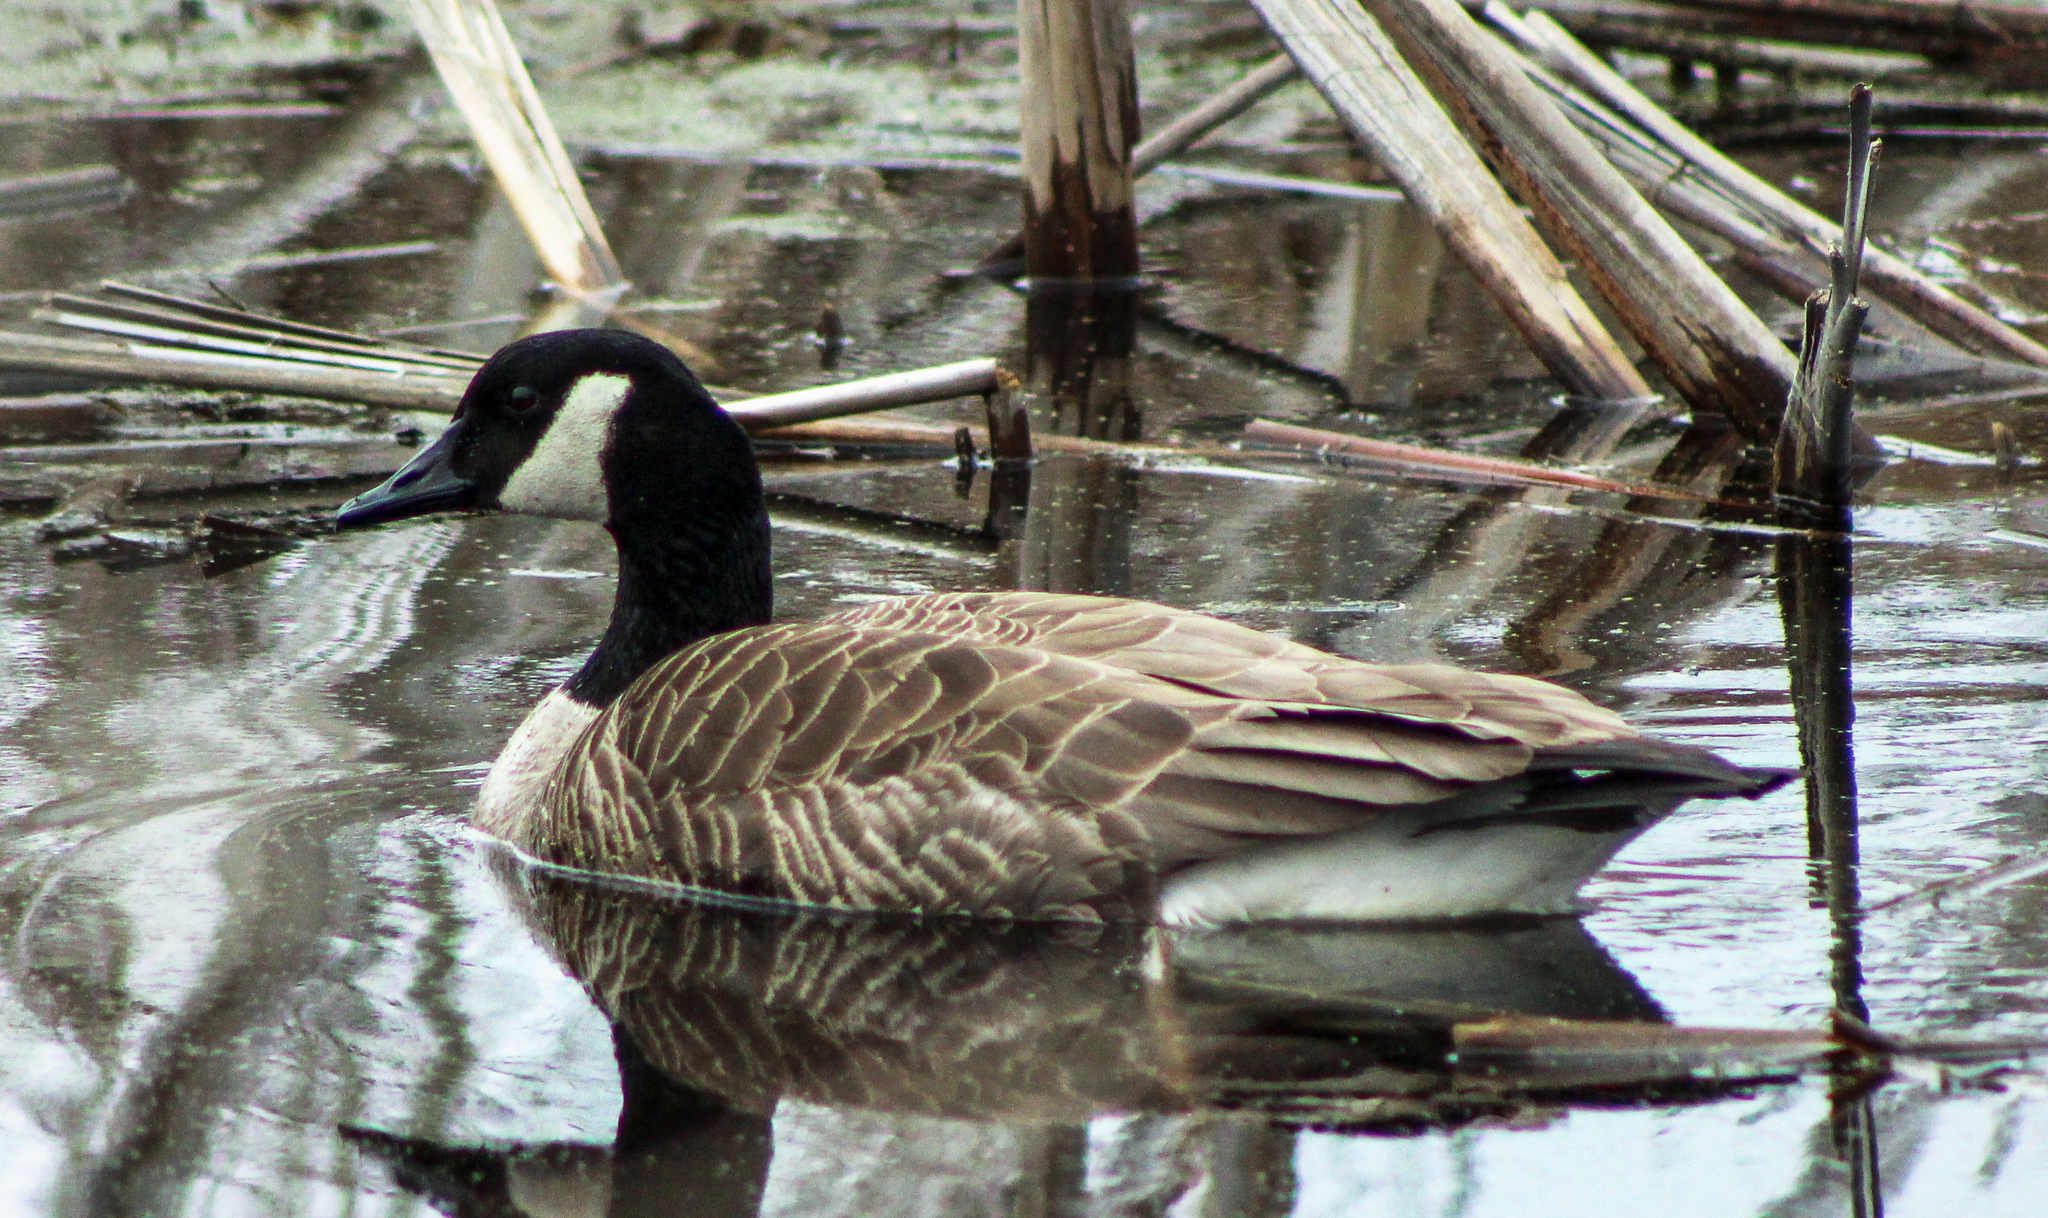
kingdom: Animalia
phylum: Chordata
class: Aves
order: Anseriformes
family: Anatidae
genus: Branta
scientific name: Branta canadensis
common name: Canada goose
